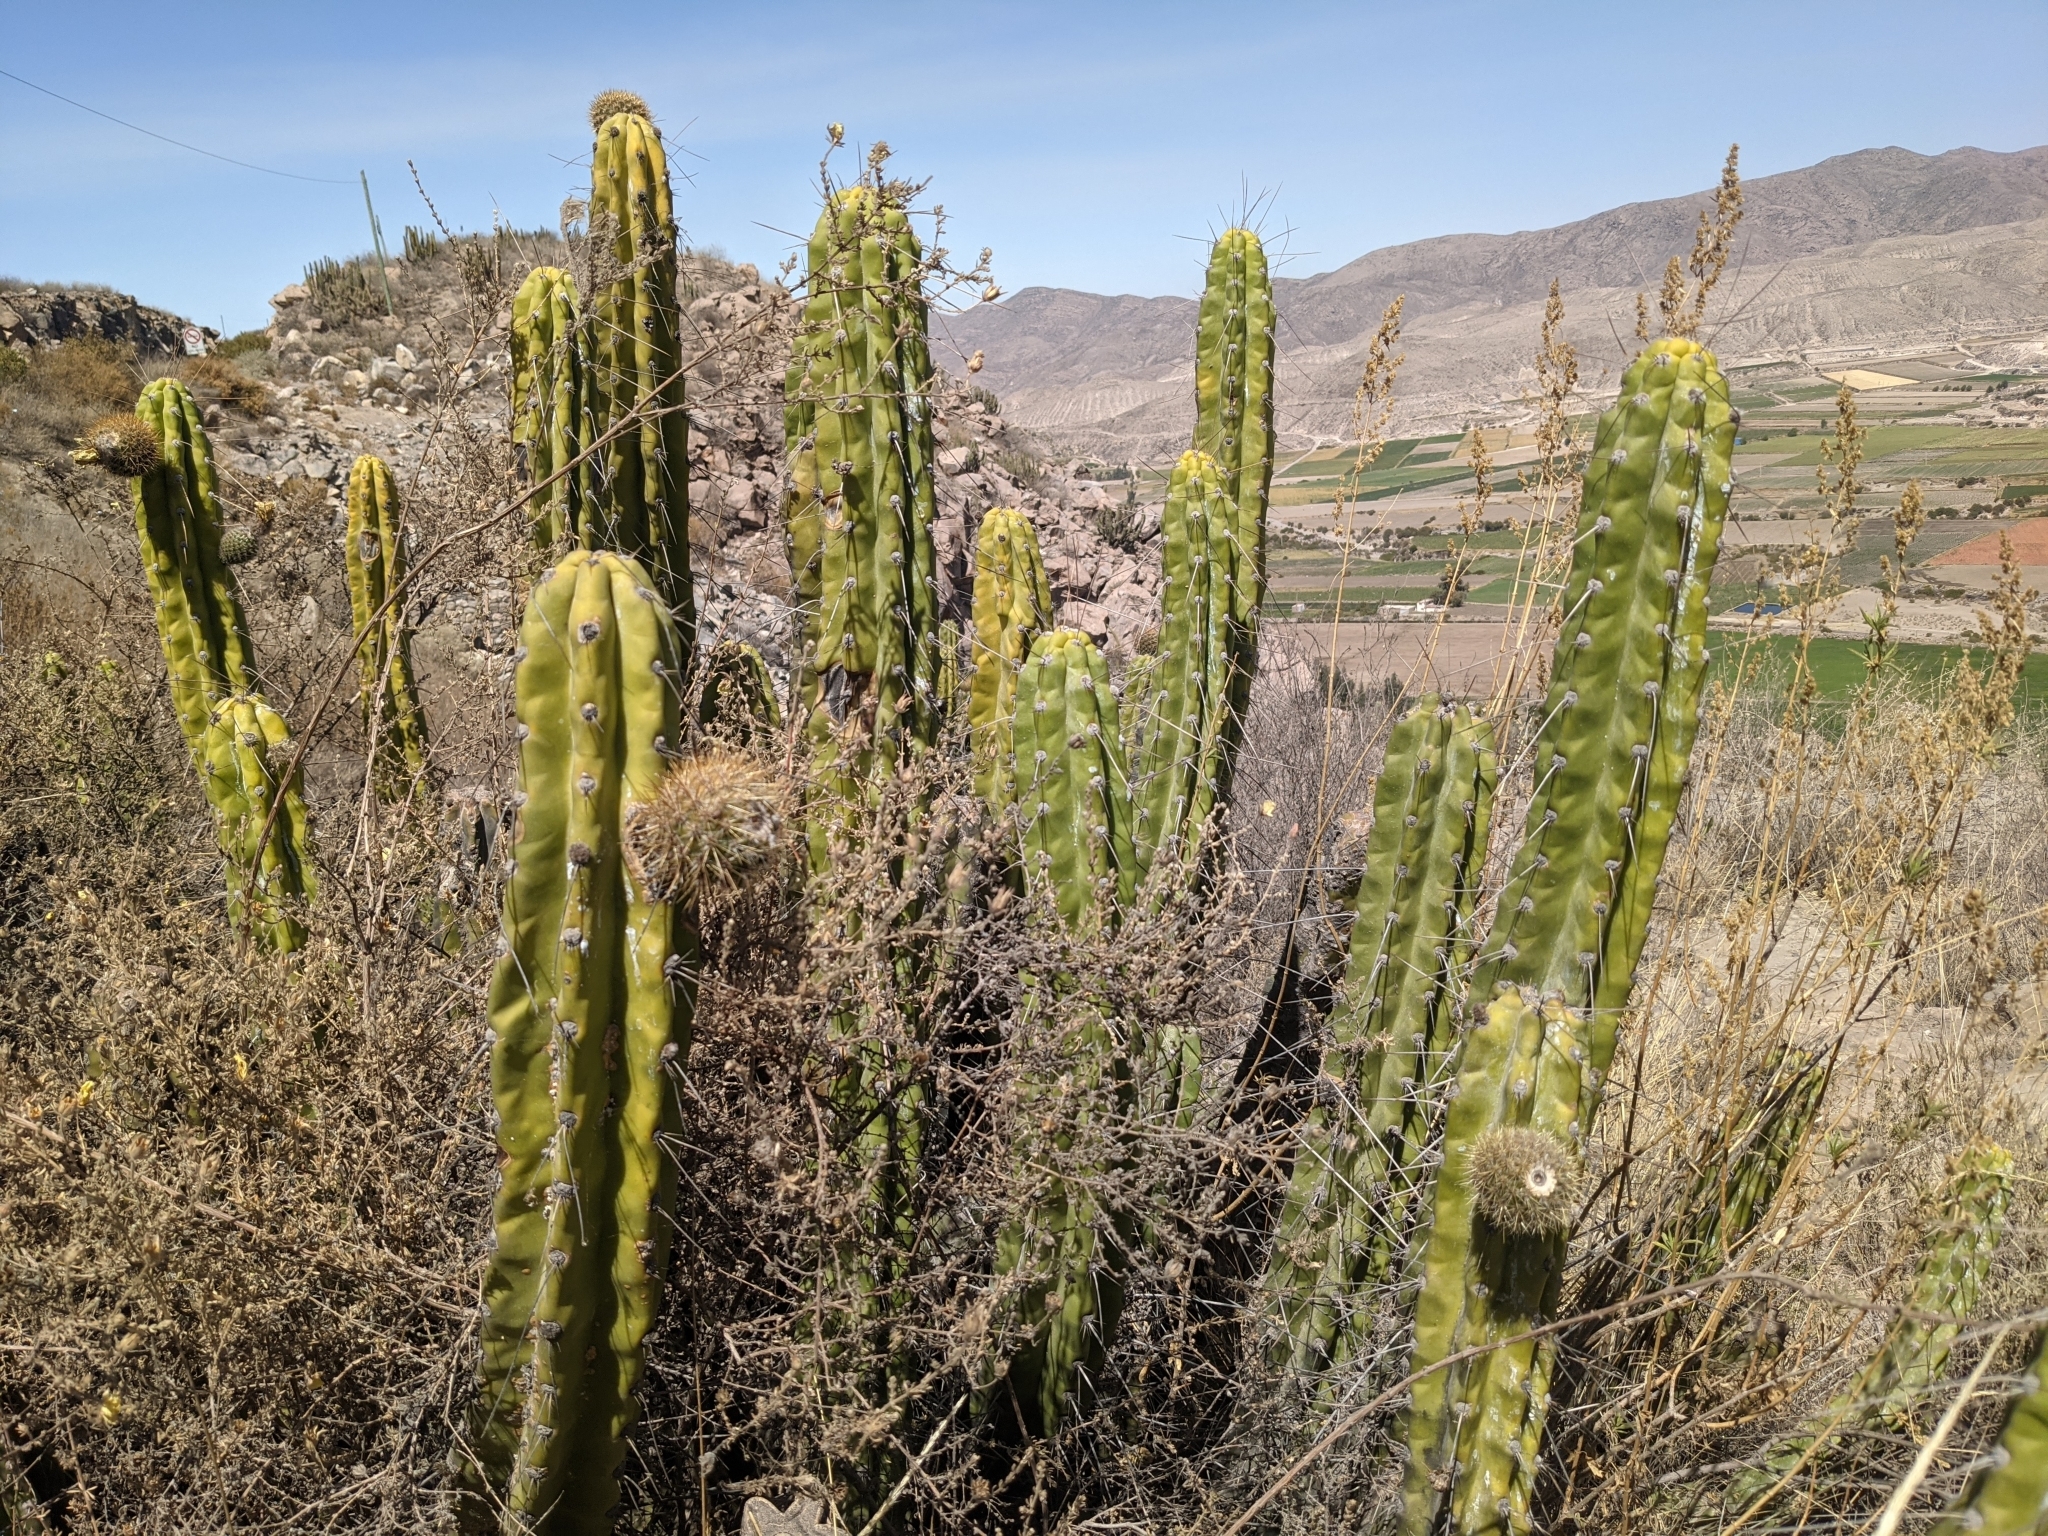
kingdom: Plantae
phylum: Tracheophyta
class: Magnoliopsida
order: Caryophyllales
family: Cactaceae
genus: Corryocactus
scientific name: Corryocactus brevistylus
